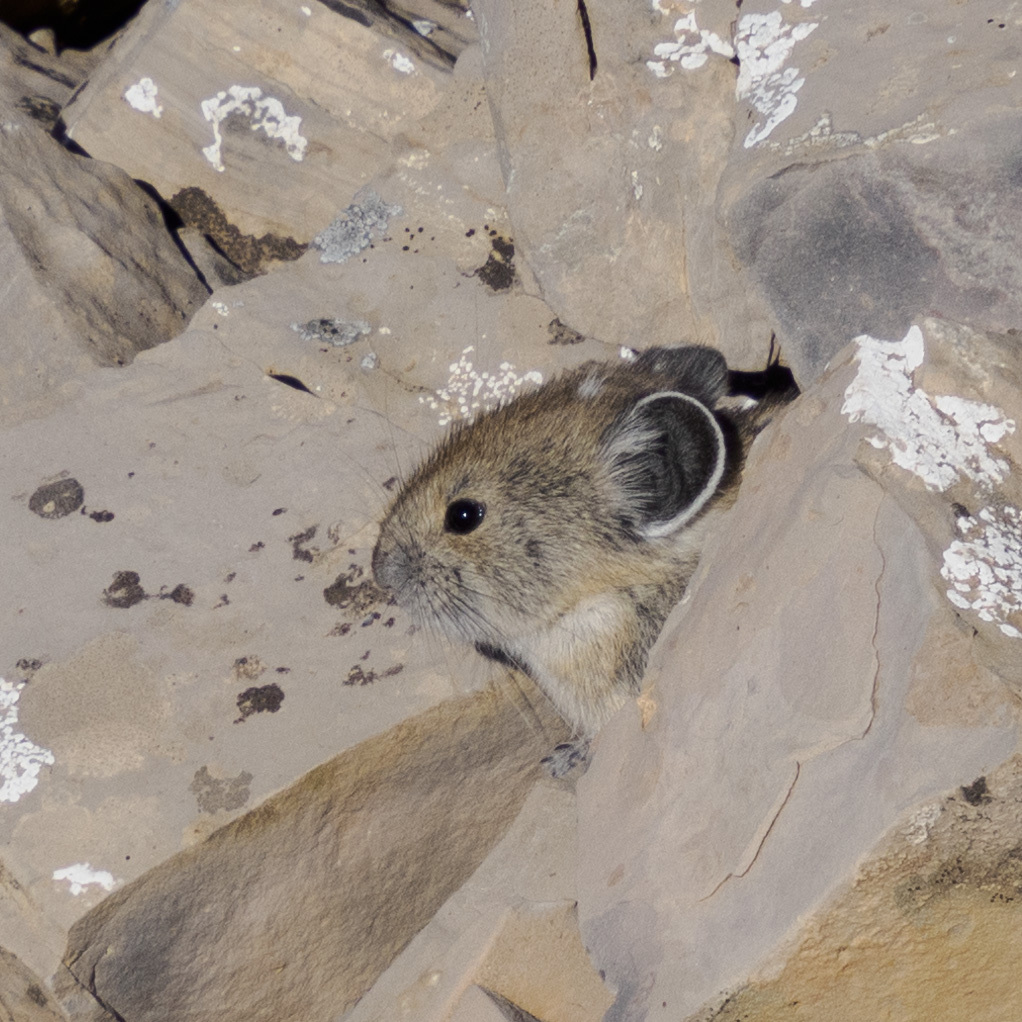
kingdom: Animalia
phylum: Chordata
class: Mammalia
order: Lagomorpha
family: Ochotonidae
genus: Ochotona
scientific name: Ochotona princeps
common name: American pika
